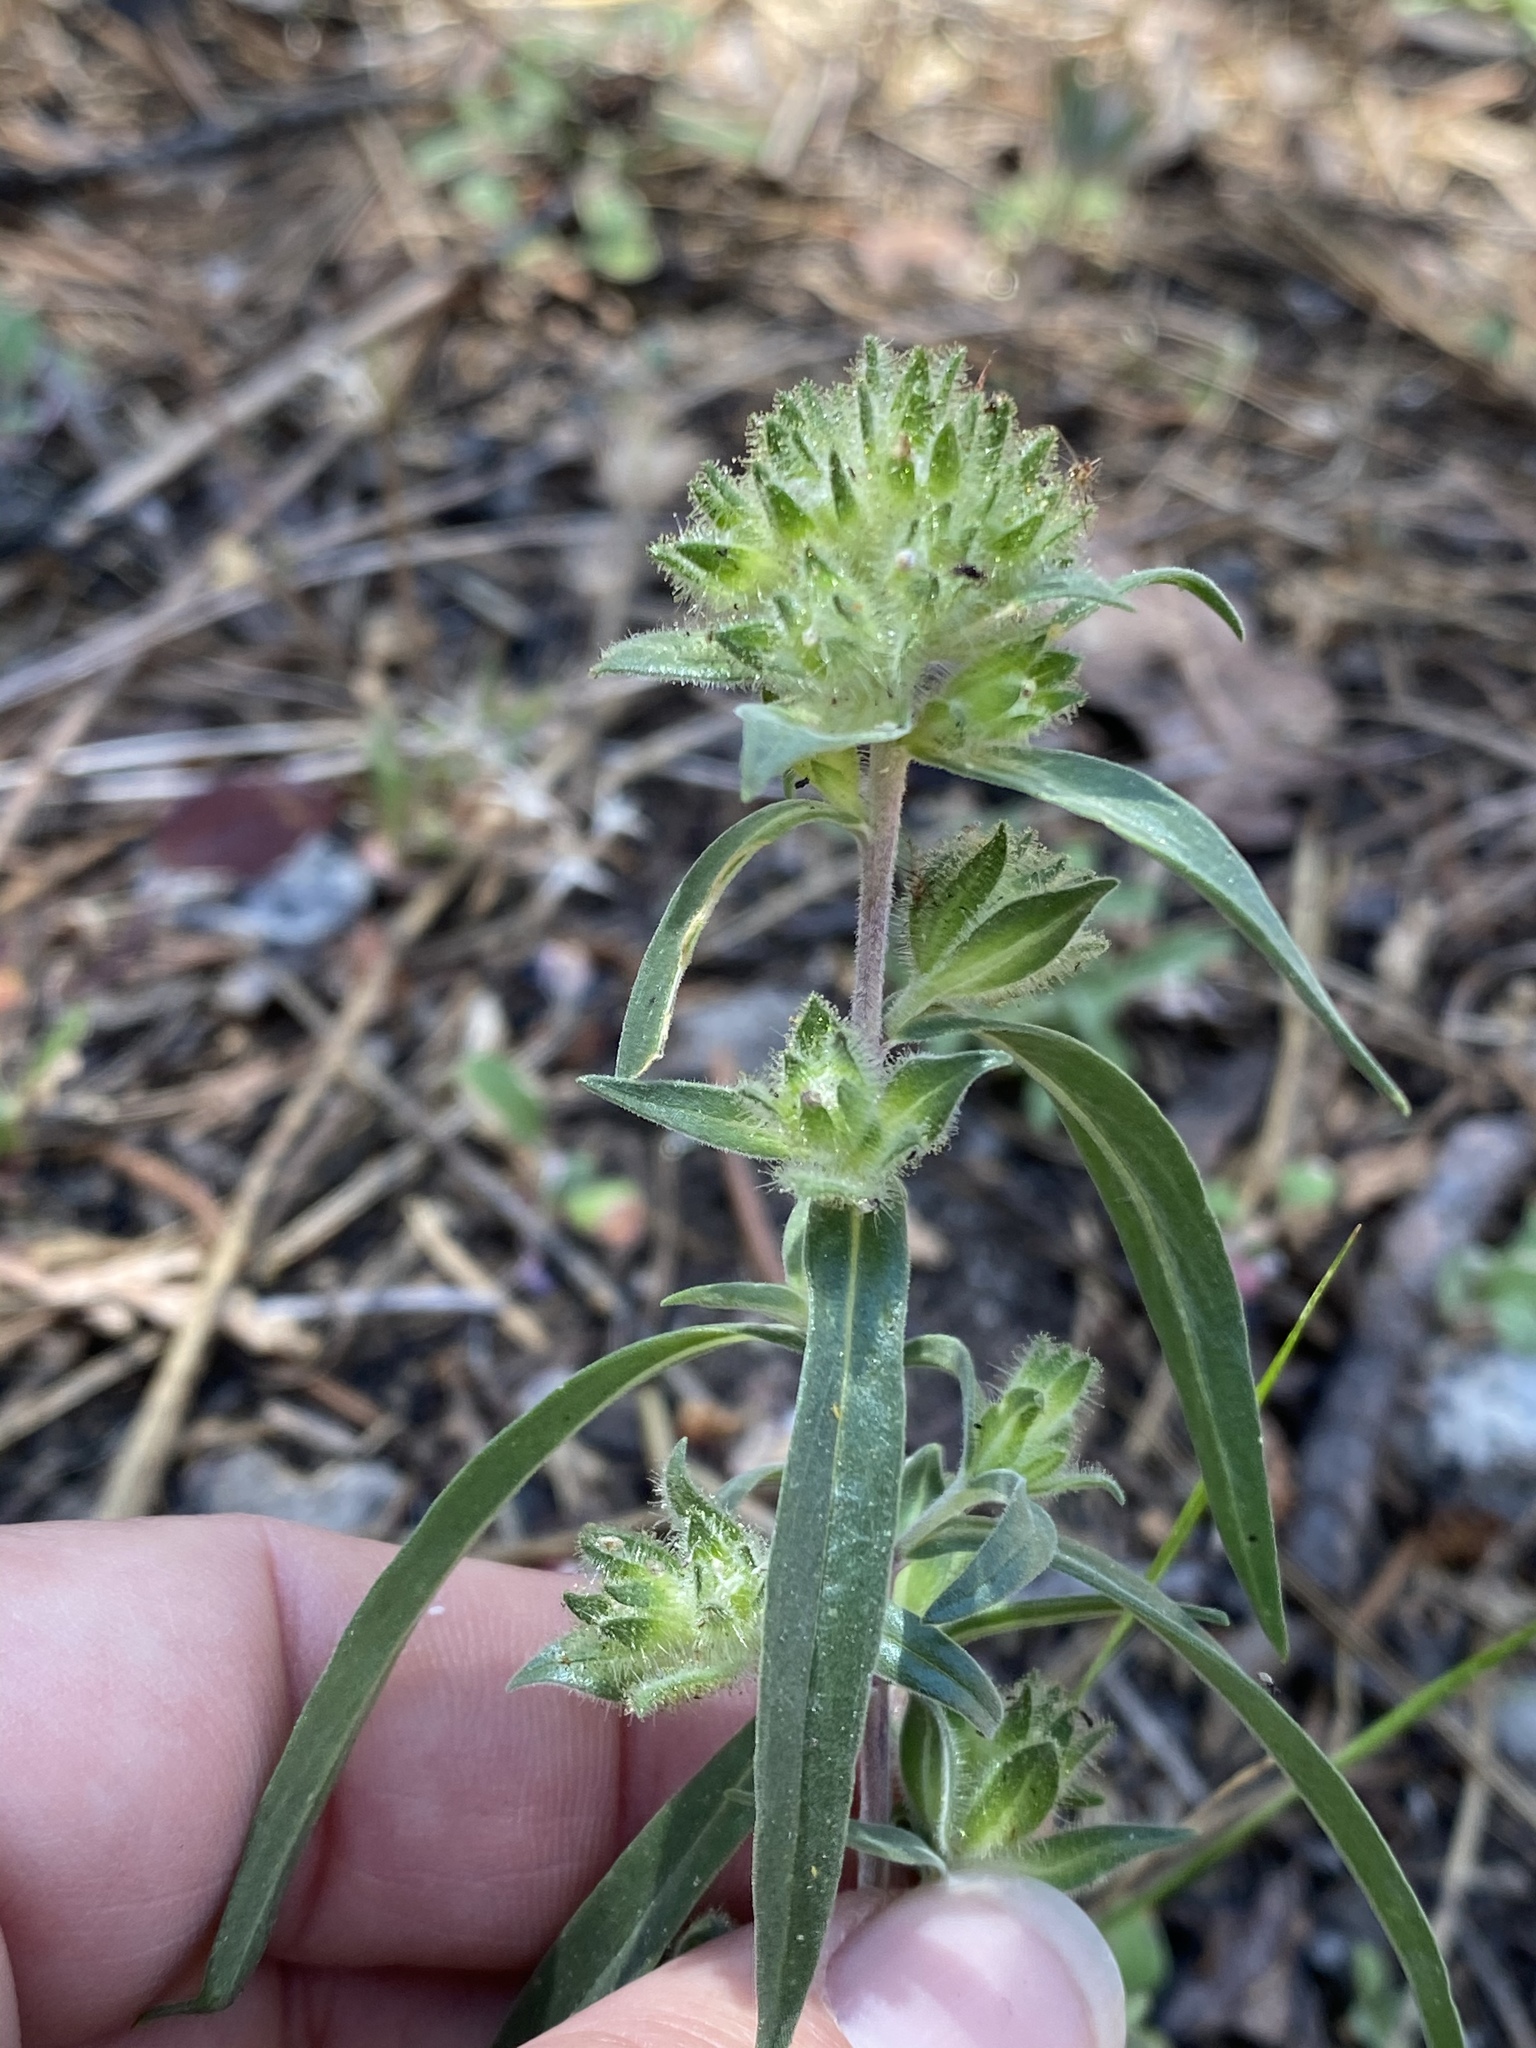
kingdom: Plantae
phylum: Tracheophyta
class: Magnoliopsida
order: Ericales
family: Polemoniaceae
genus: Collomia
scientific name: Collomia grandiflora
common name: California strawflower
